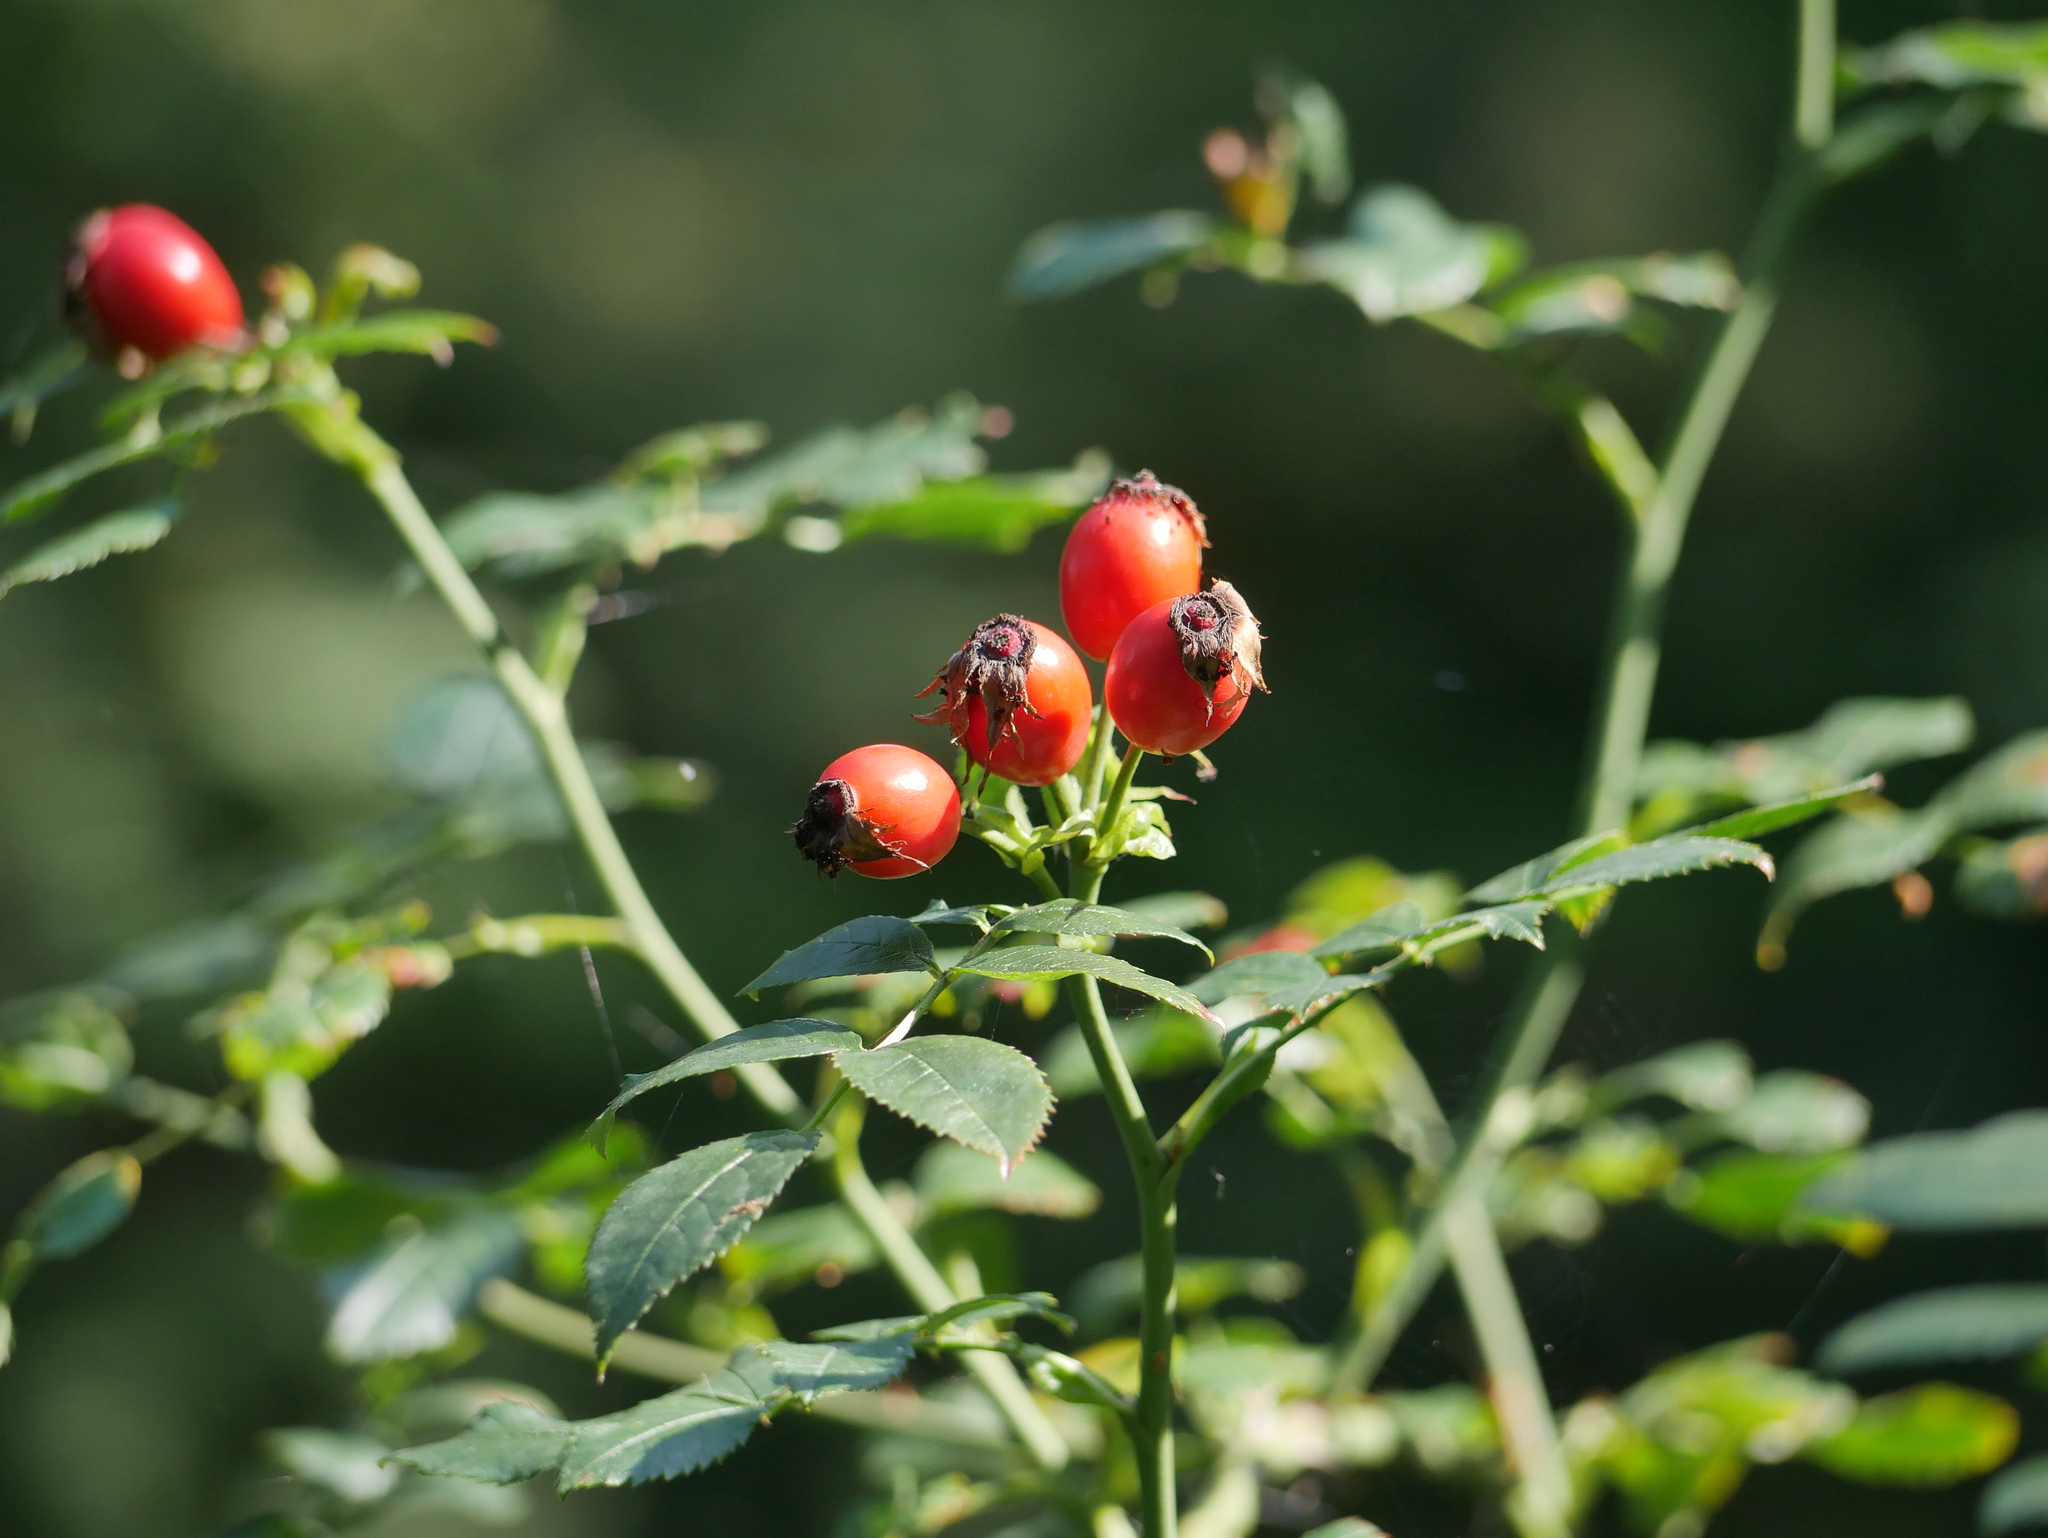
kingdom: Plantae
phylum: Tracheophyta
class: Magnoliopsida
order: Rosales
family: Rosaceae
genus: Rosa
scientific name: Rosa canina
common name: Dog rose
